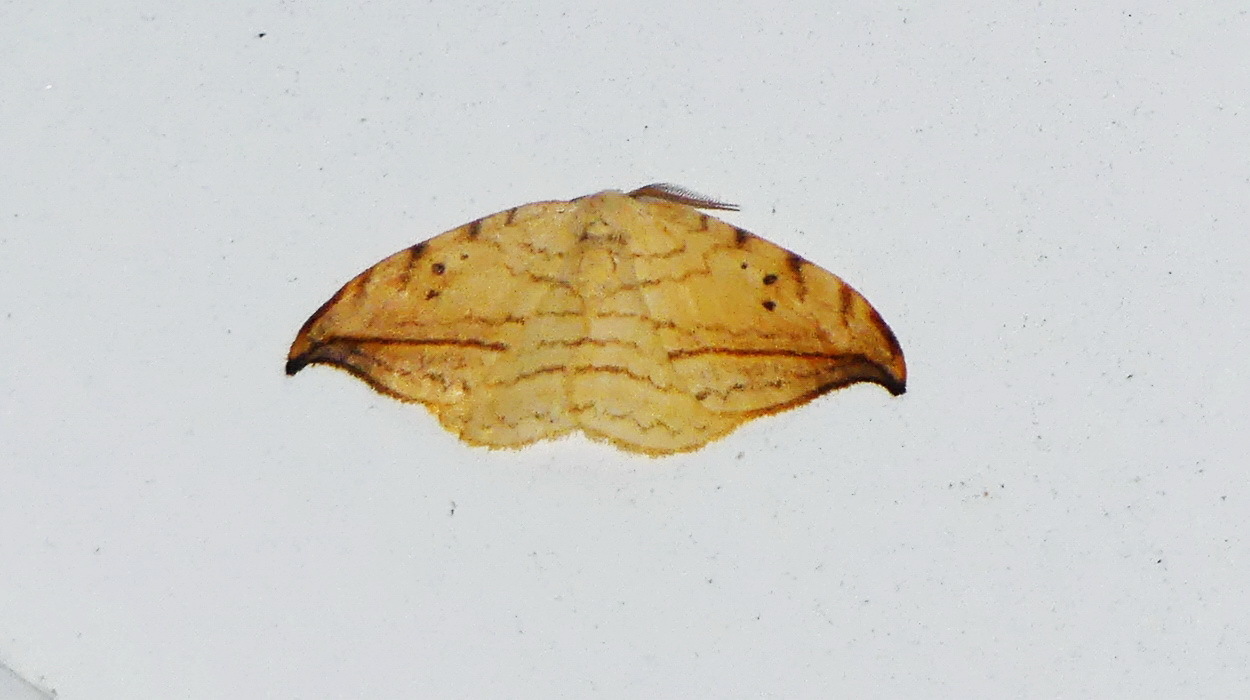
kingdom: Animalia
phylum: Arthropoda
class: Insecta
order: Lepidoptera
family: Drepanidae
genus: Drepana
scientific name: Drepana arcuata
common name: Arched hooktip moth
